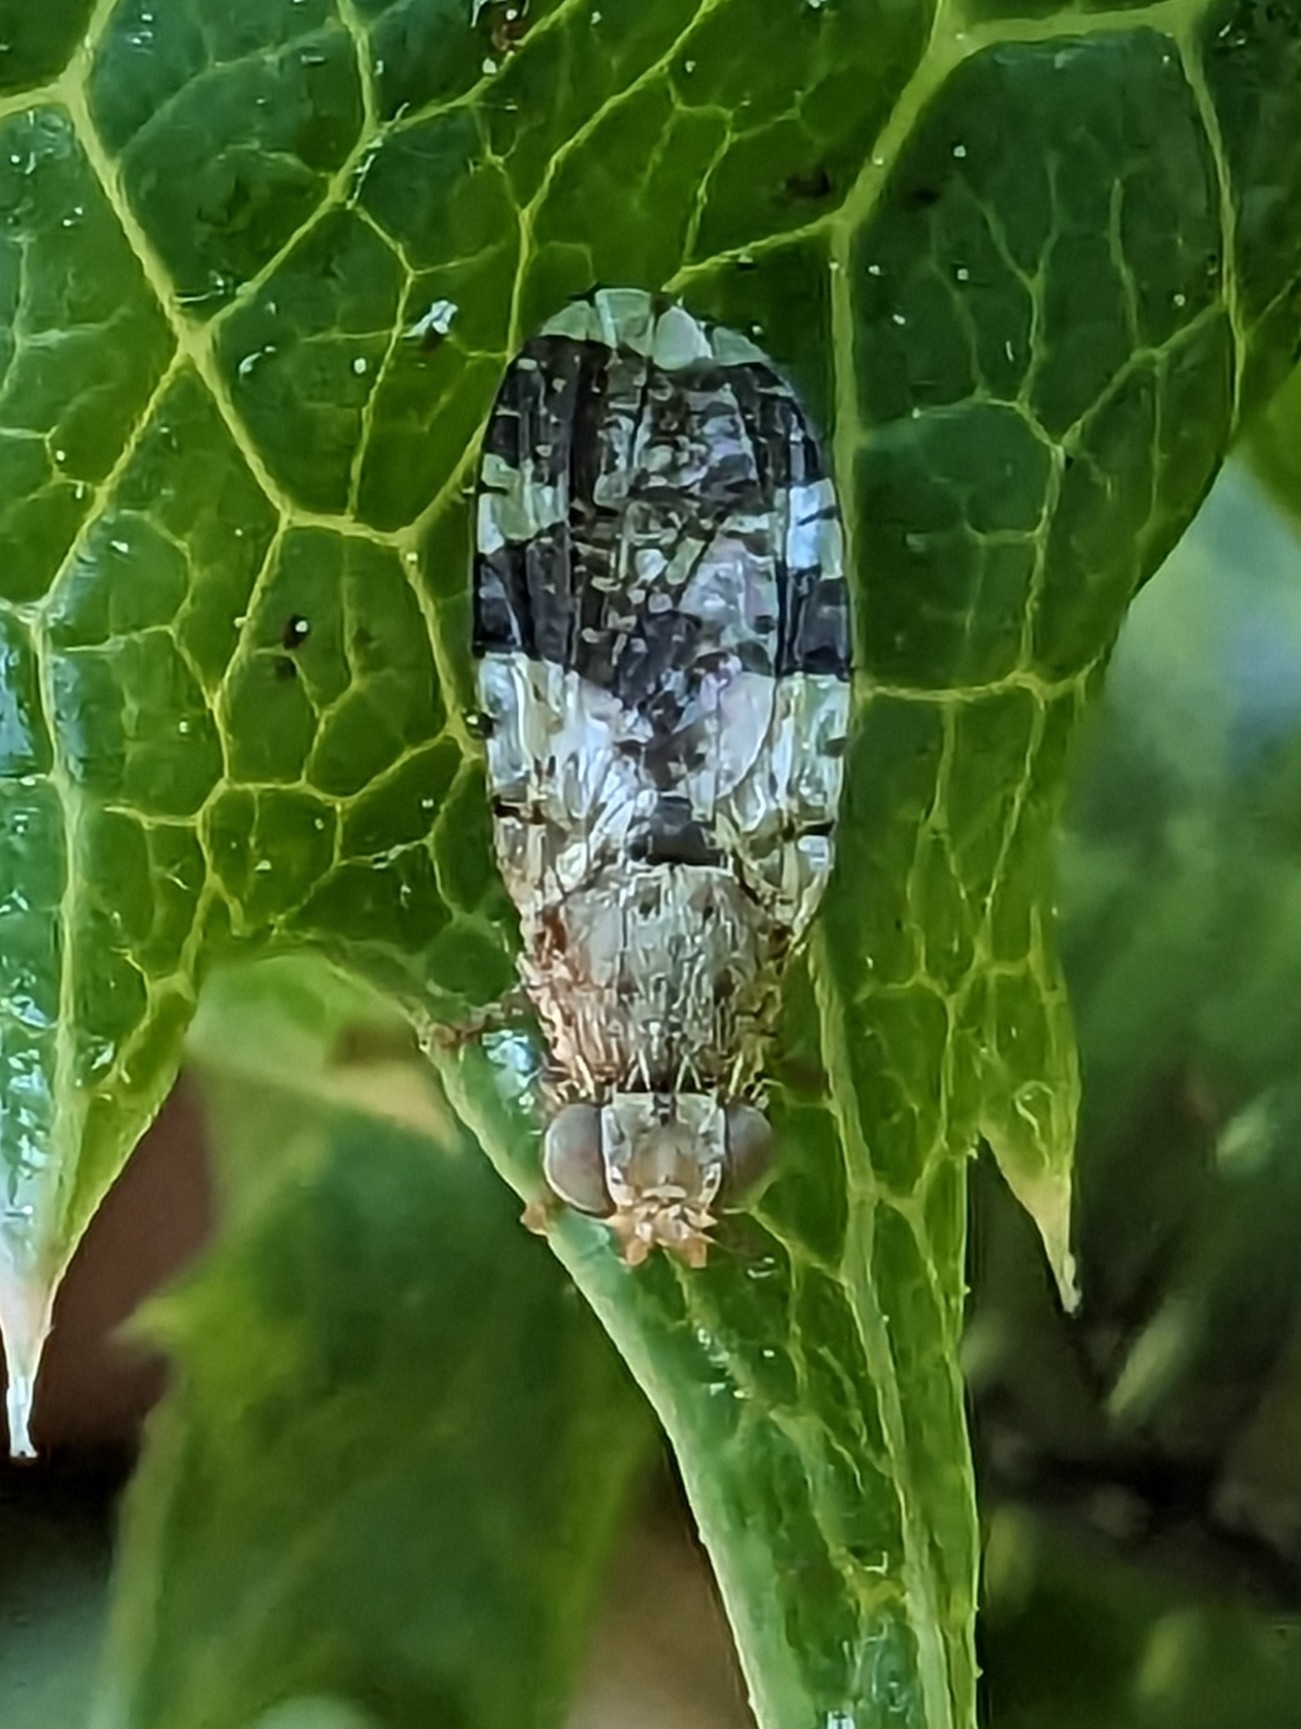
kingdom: Animalia
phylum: Arthropoda
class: Insecta
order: Diptera
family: Tephritidae
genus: Tephritis
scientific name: Tephritis formosa
